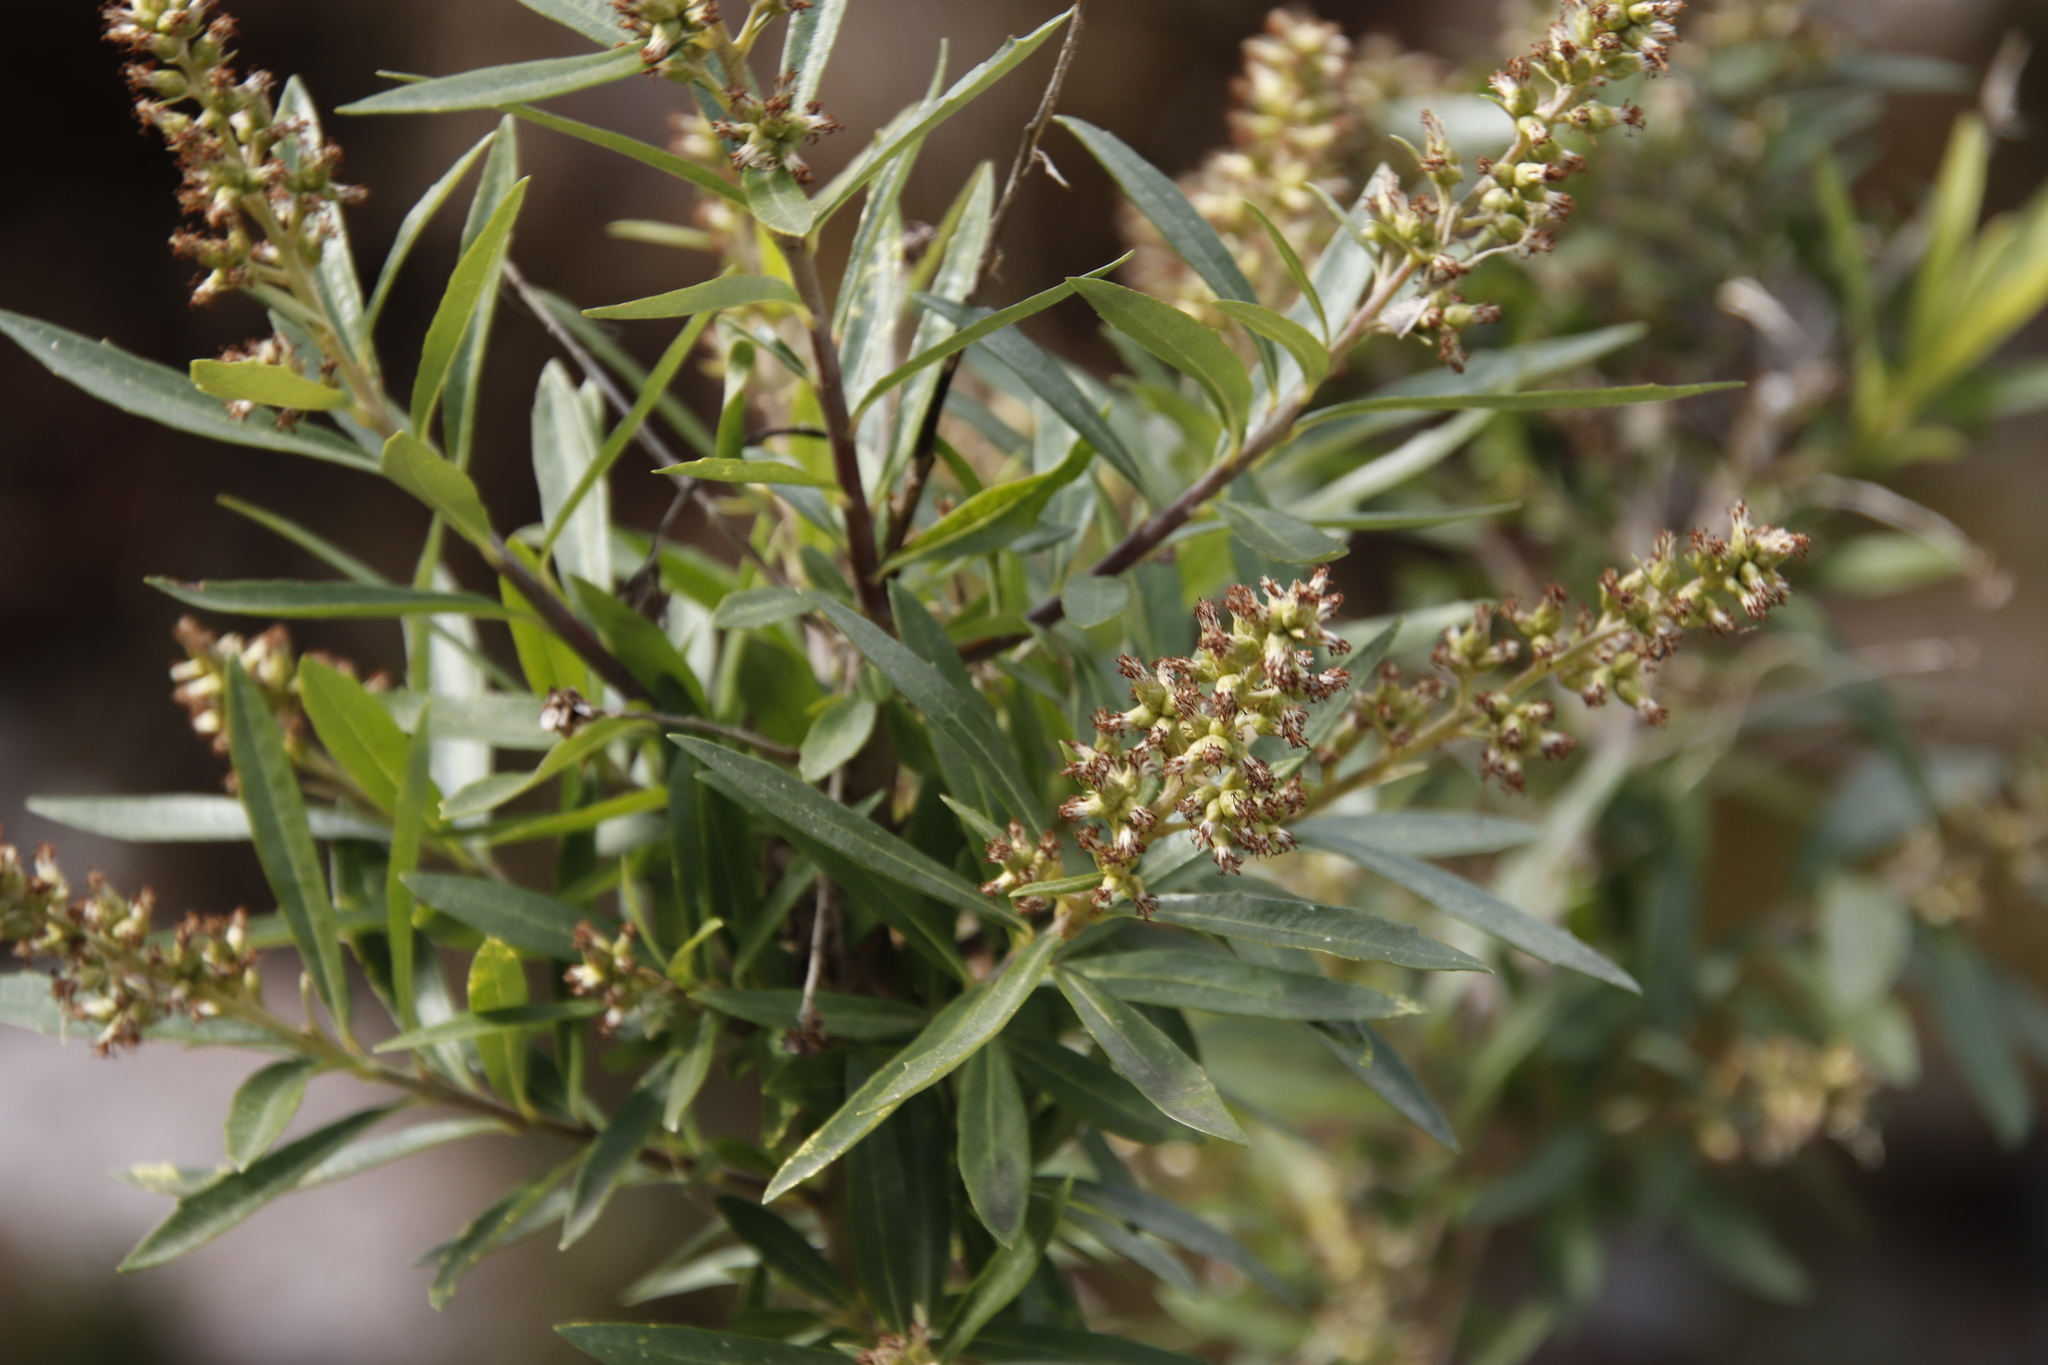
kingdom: Plantae
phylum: Tracheophyta
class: Magnoliopsida
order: Asterales
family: Asteraceae
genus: Brachylaena
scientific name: Brachylaena neriifolia
